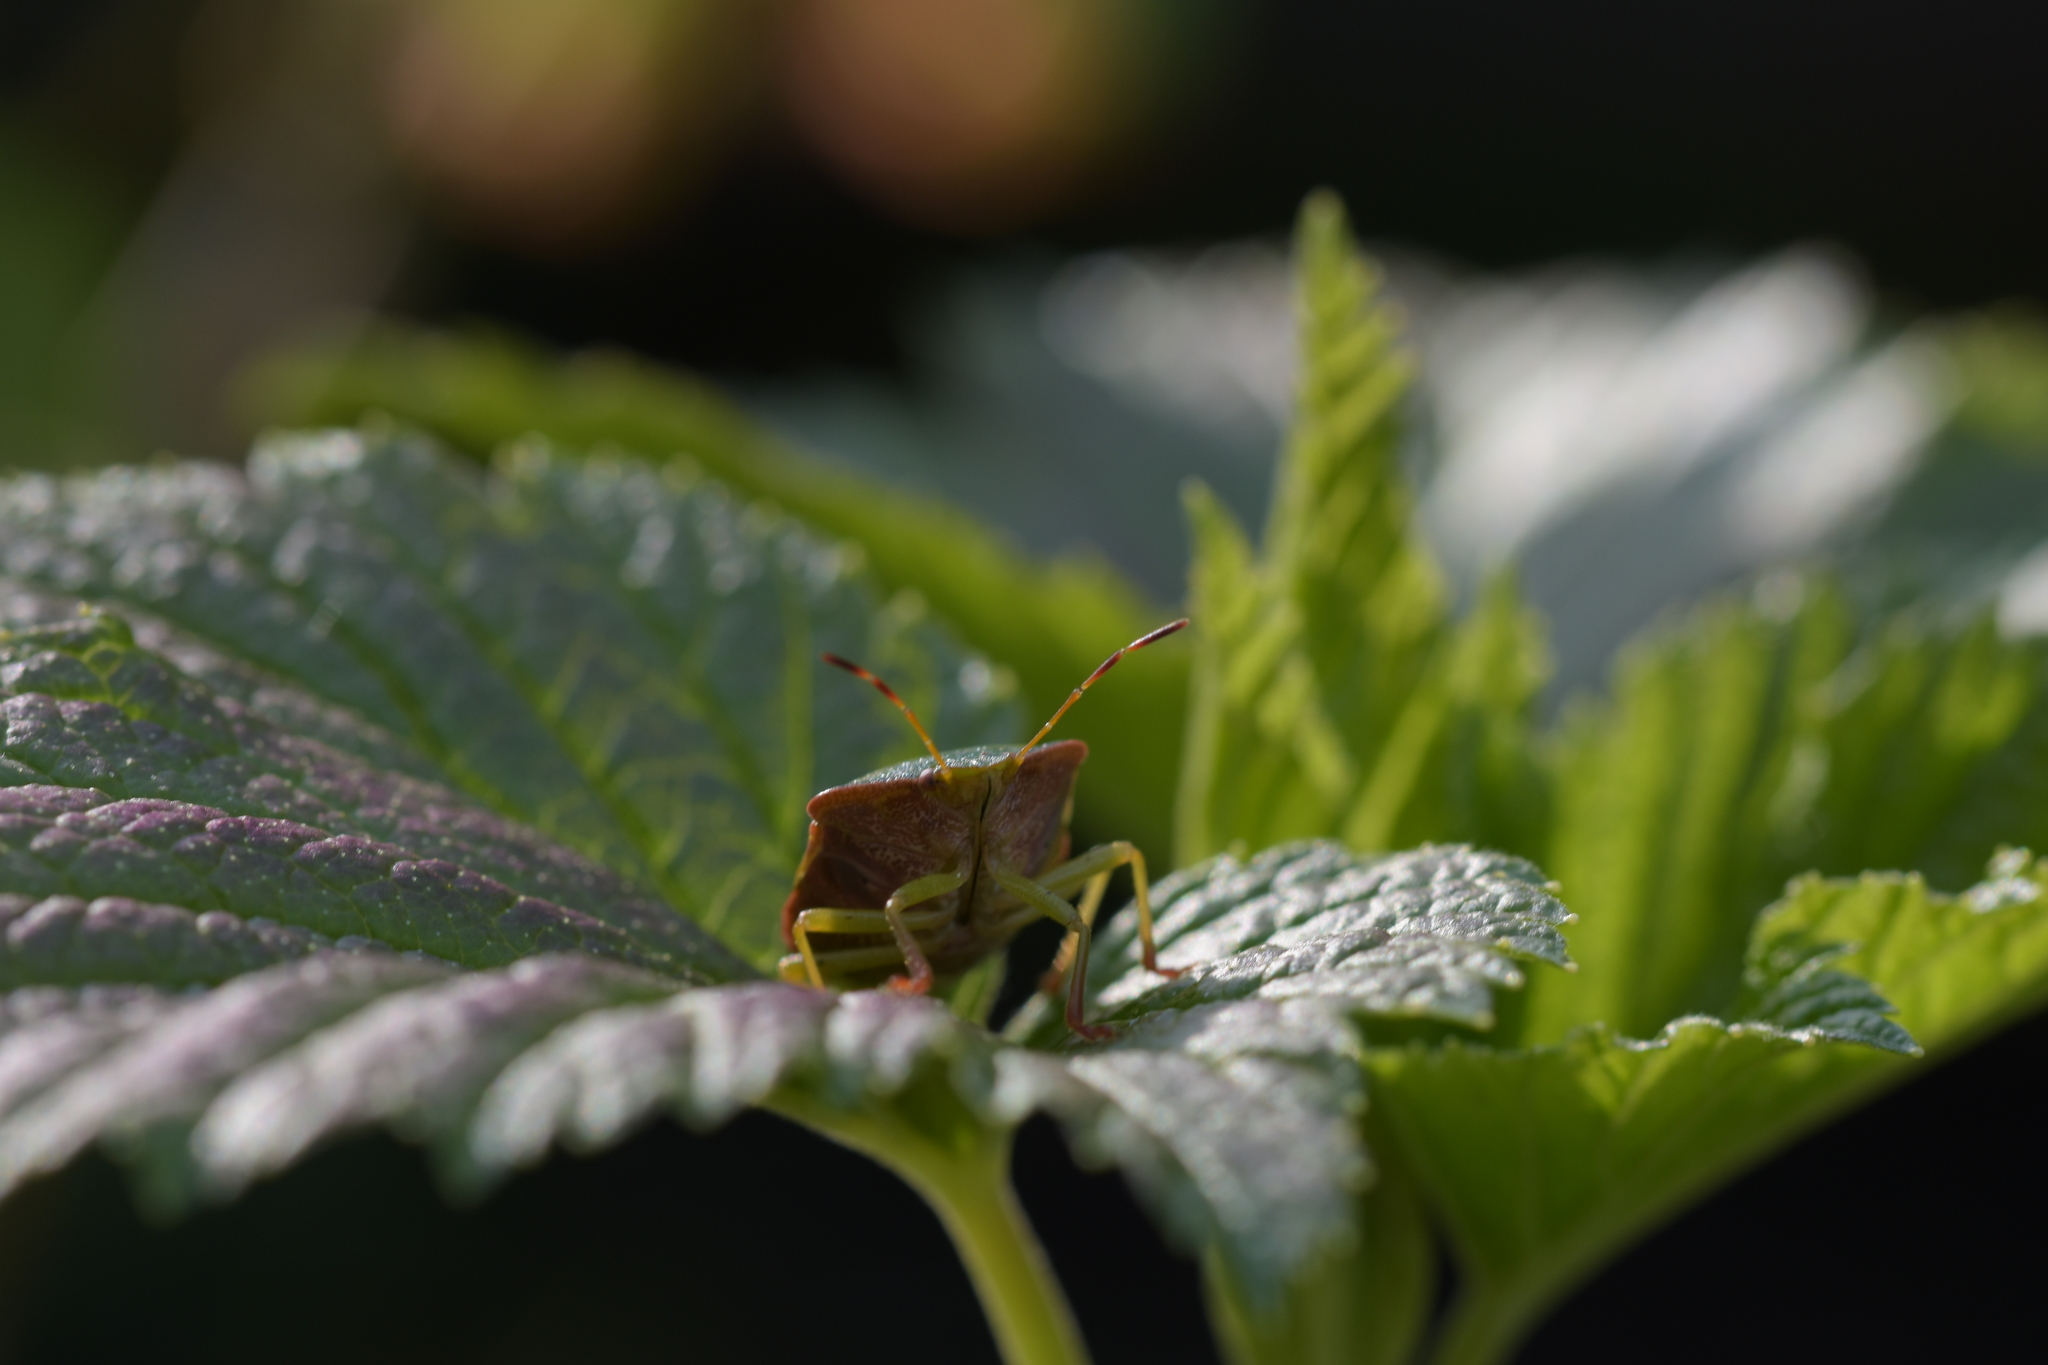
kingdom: Animalia
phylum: Arthropoda
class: Insecta
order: Hemiptera
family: Pentatomidae
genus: Palomena
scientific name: Palomena prasina
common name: Green shieldbug
